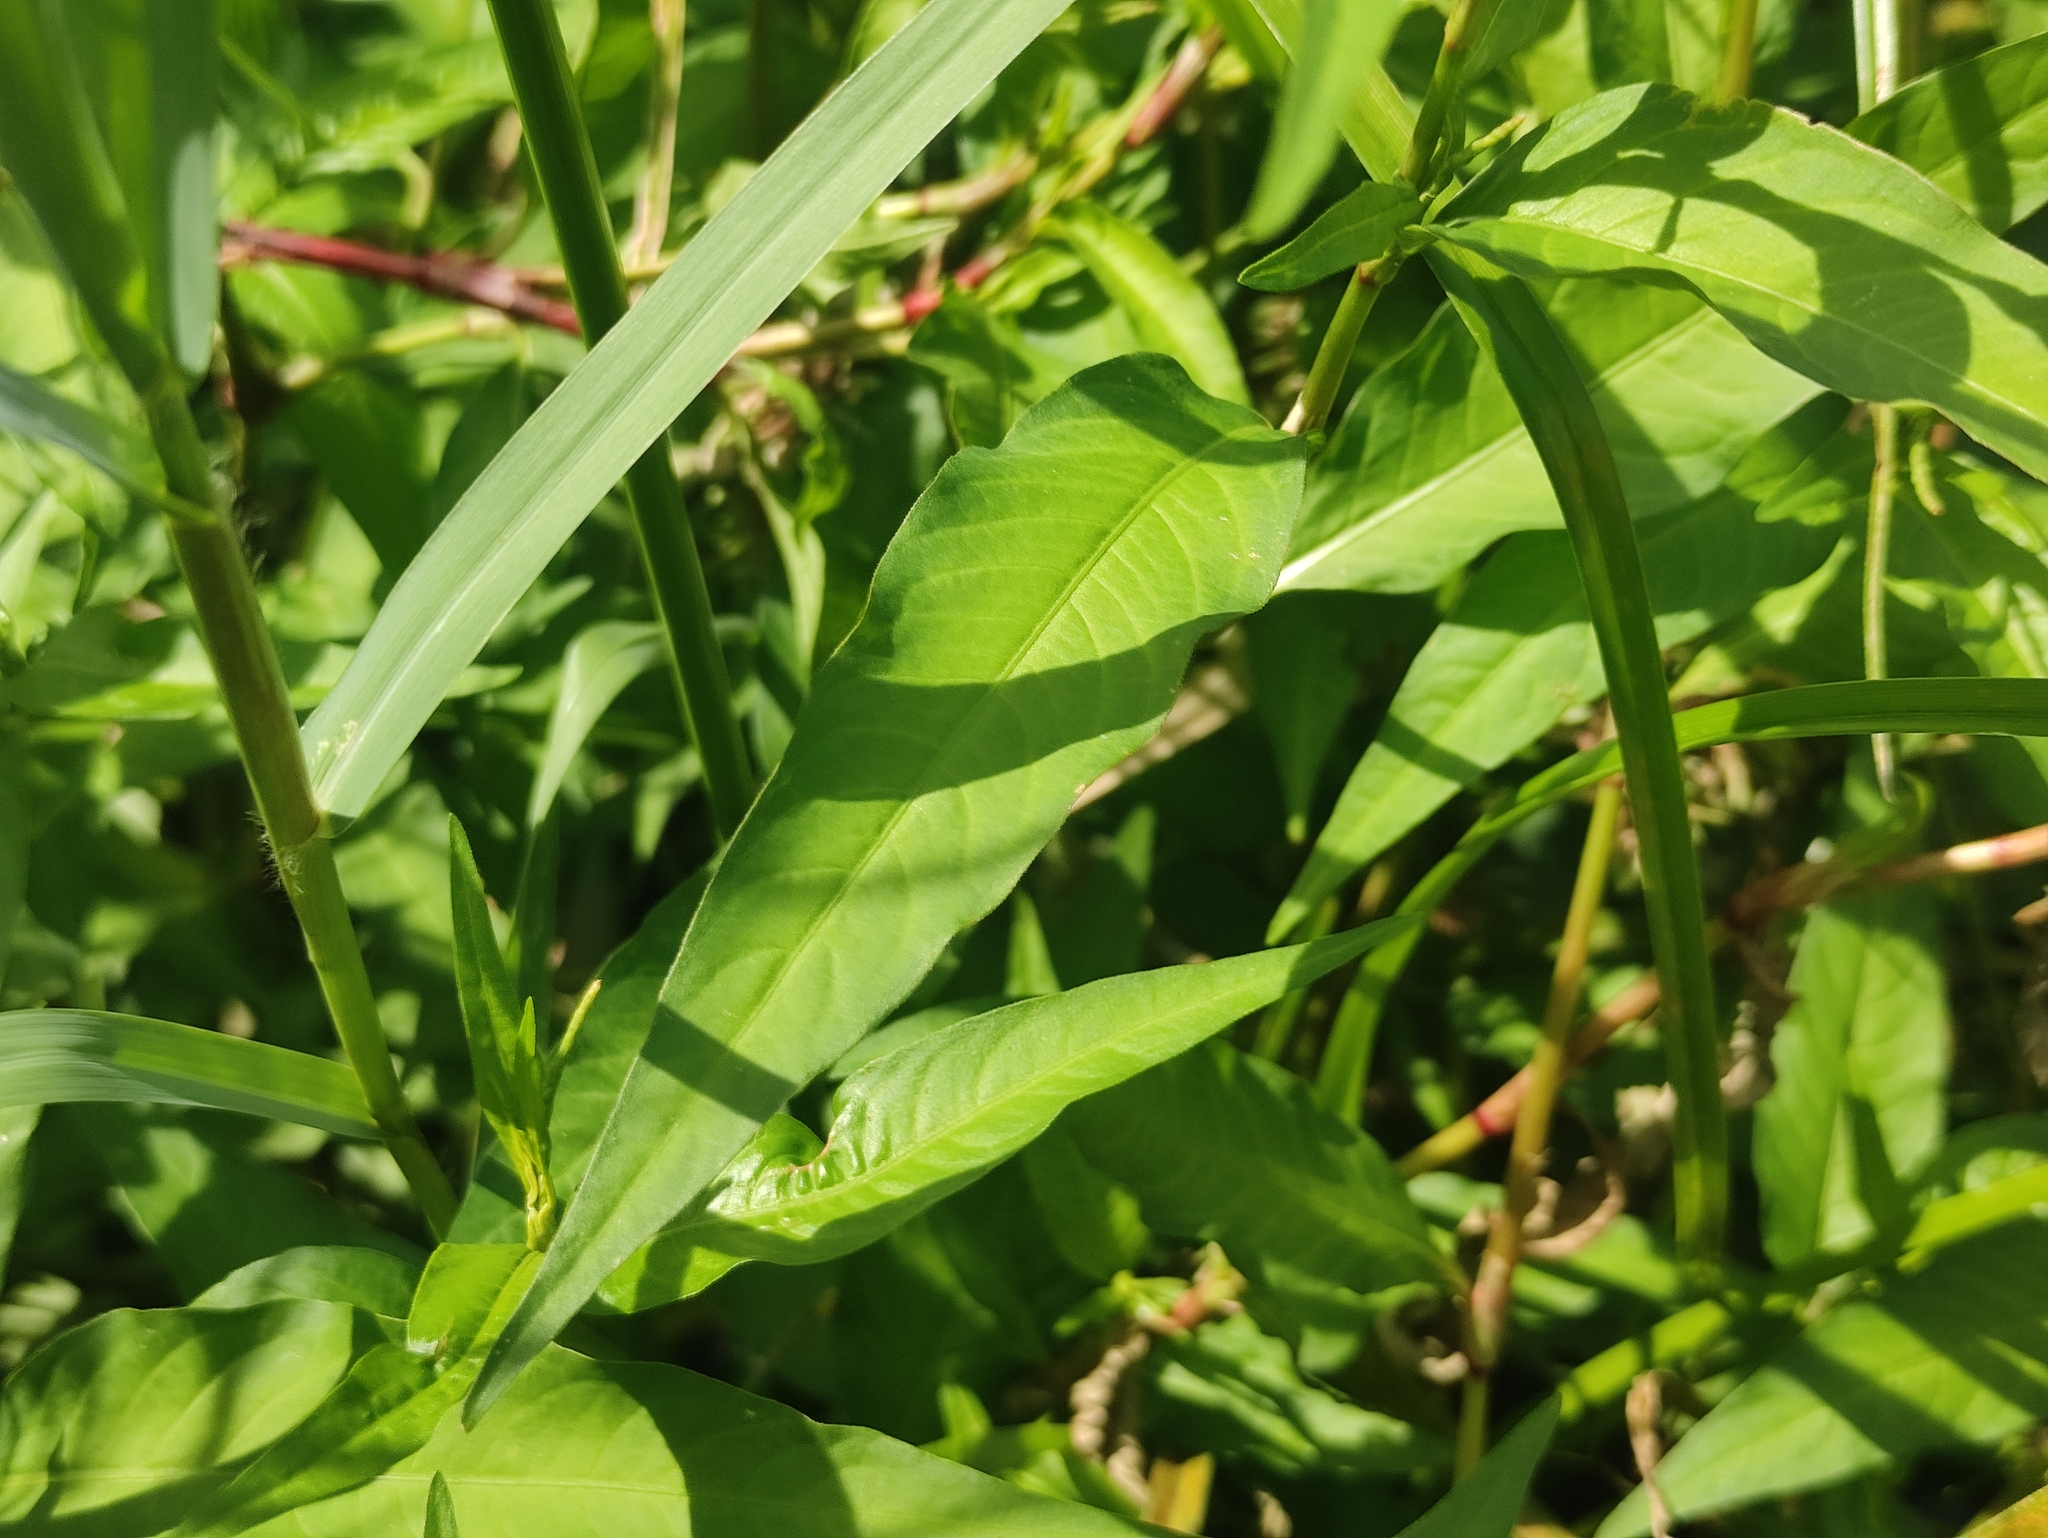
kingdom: Plantae
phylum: Tracheophyta
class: Magnoliopsida
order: Caryophyllales
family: Polygonaceae
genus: Persicaria
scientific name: Persicaria hydropiper
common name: Water-pepper
